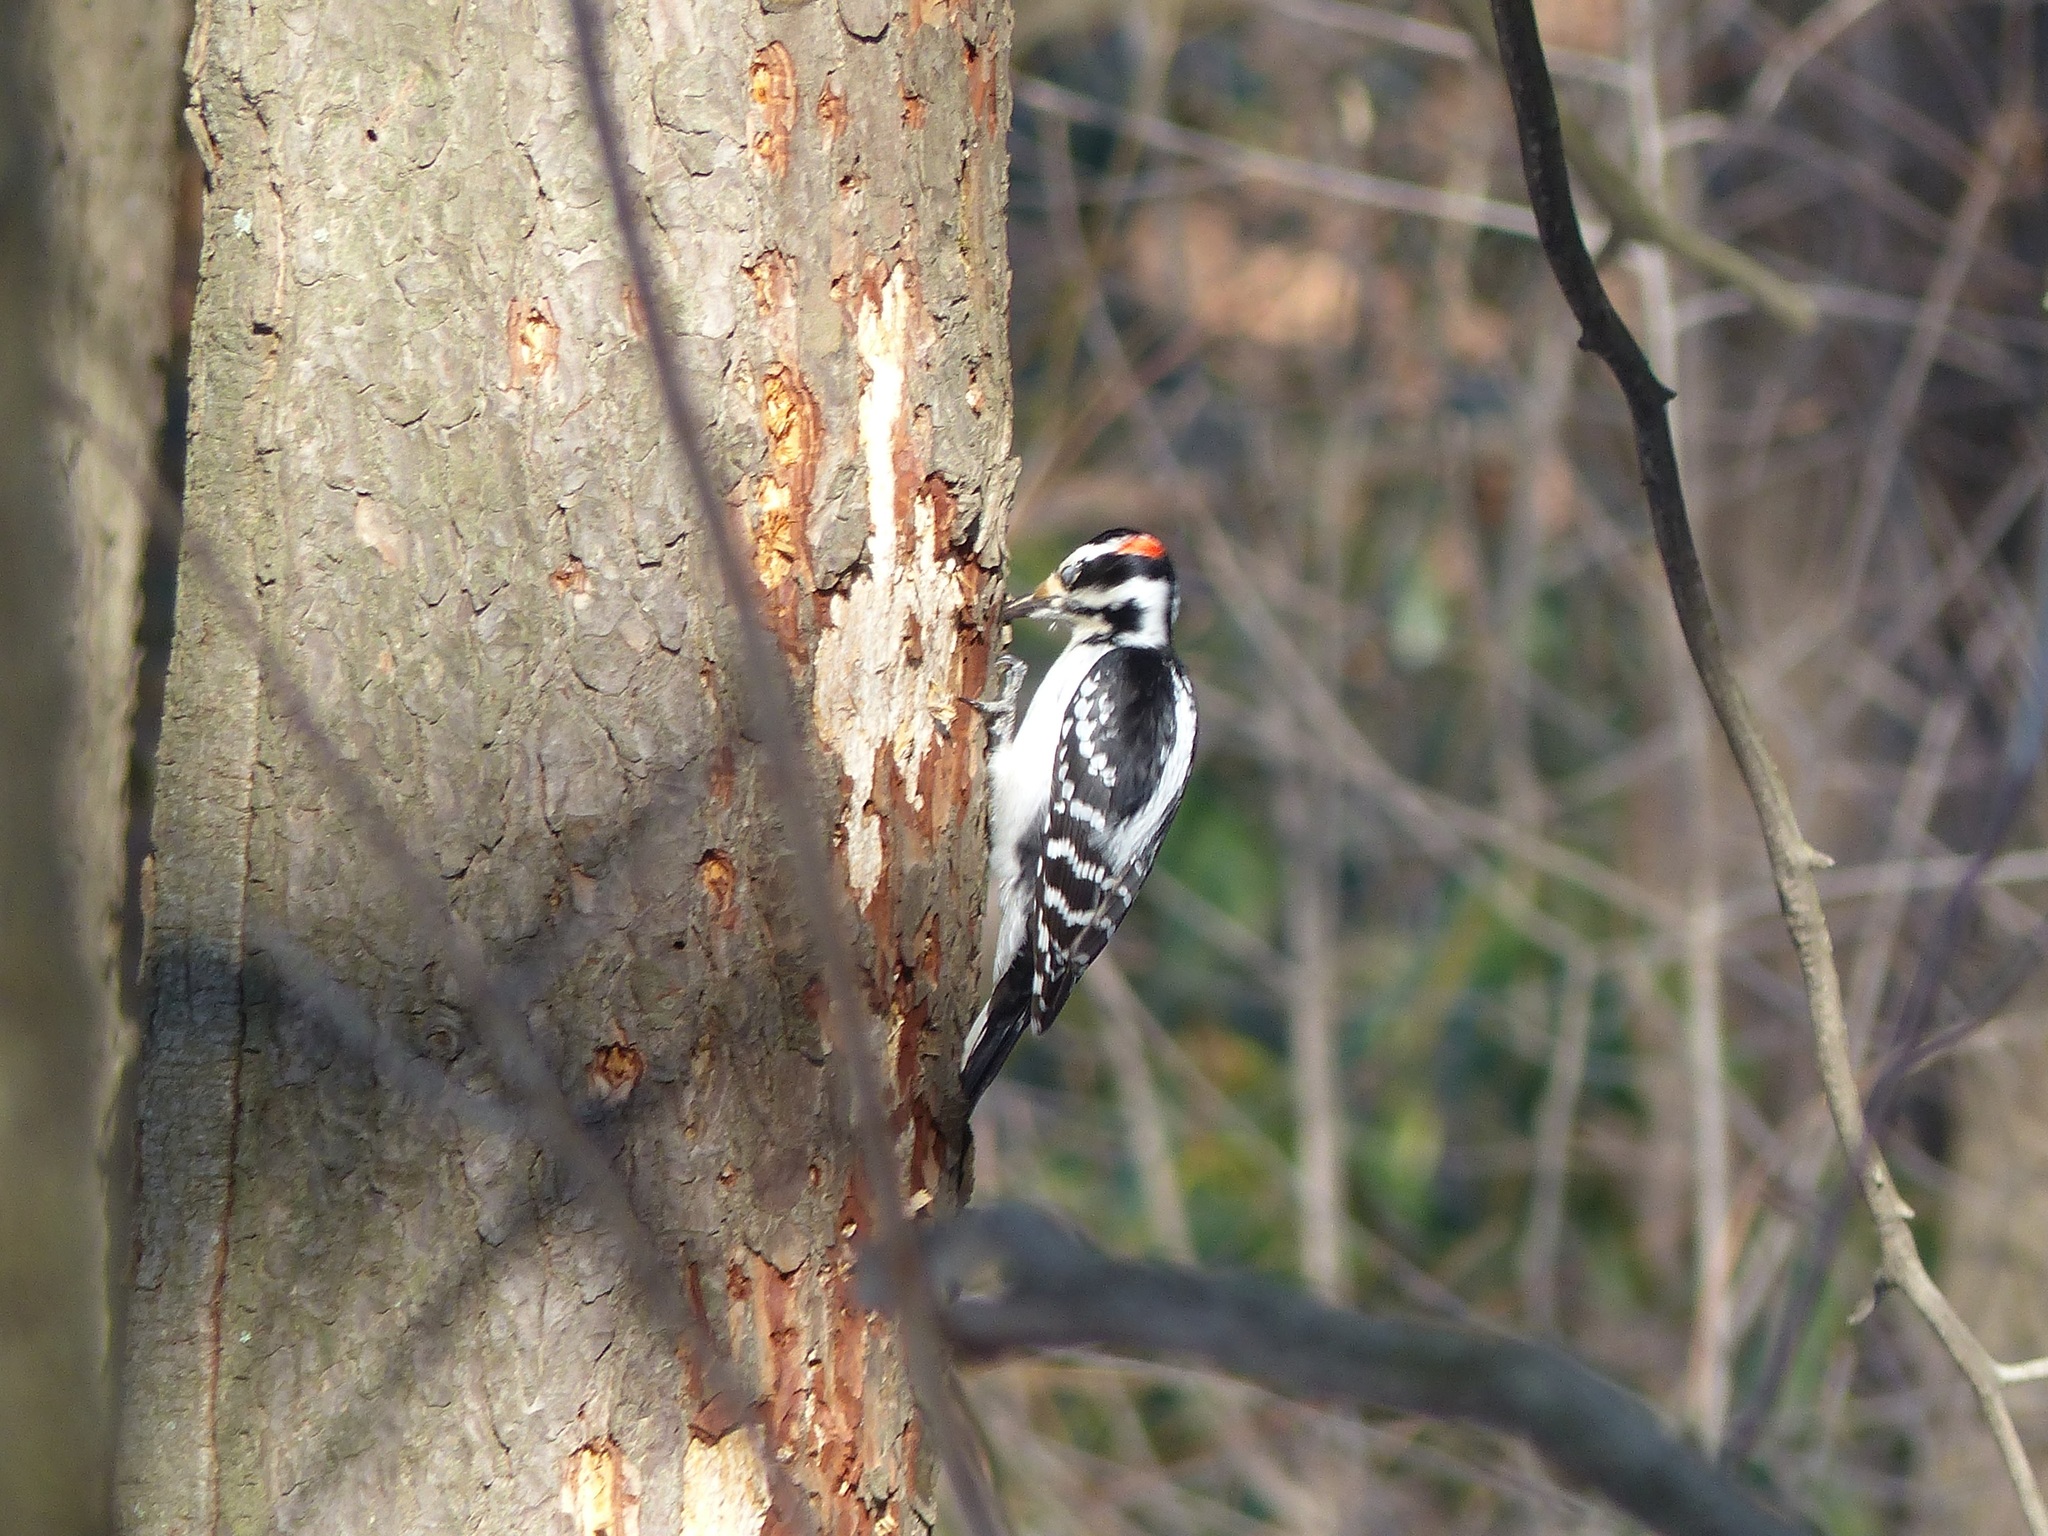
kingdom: Animalia
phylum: Chordata
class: Aves
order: Piciformes
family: Picidae
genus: Leuconotopicus
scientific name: Leuconotopicus villosus
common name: Hairy woodpecker
